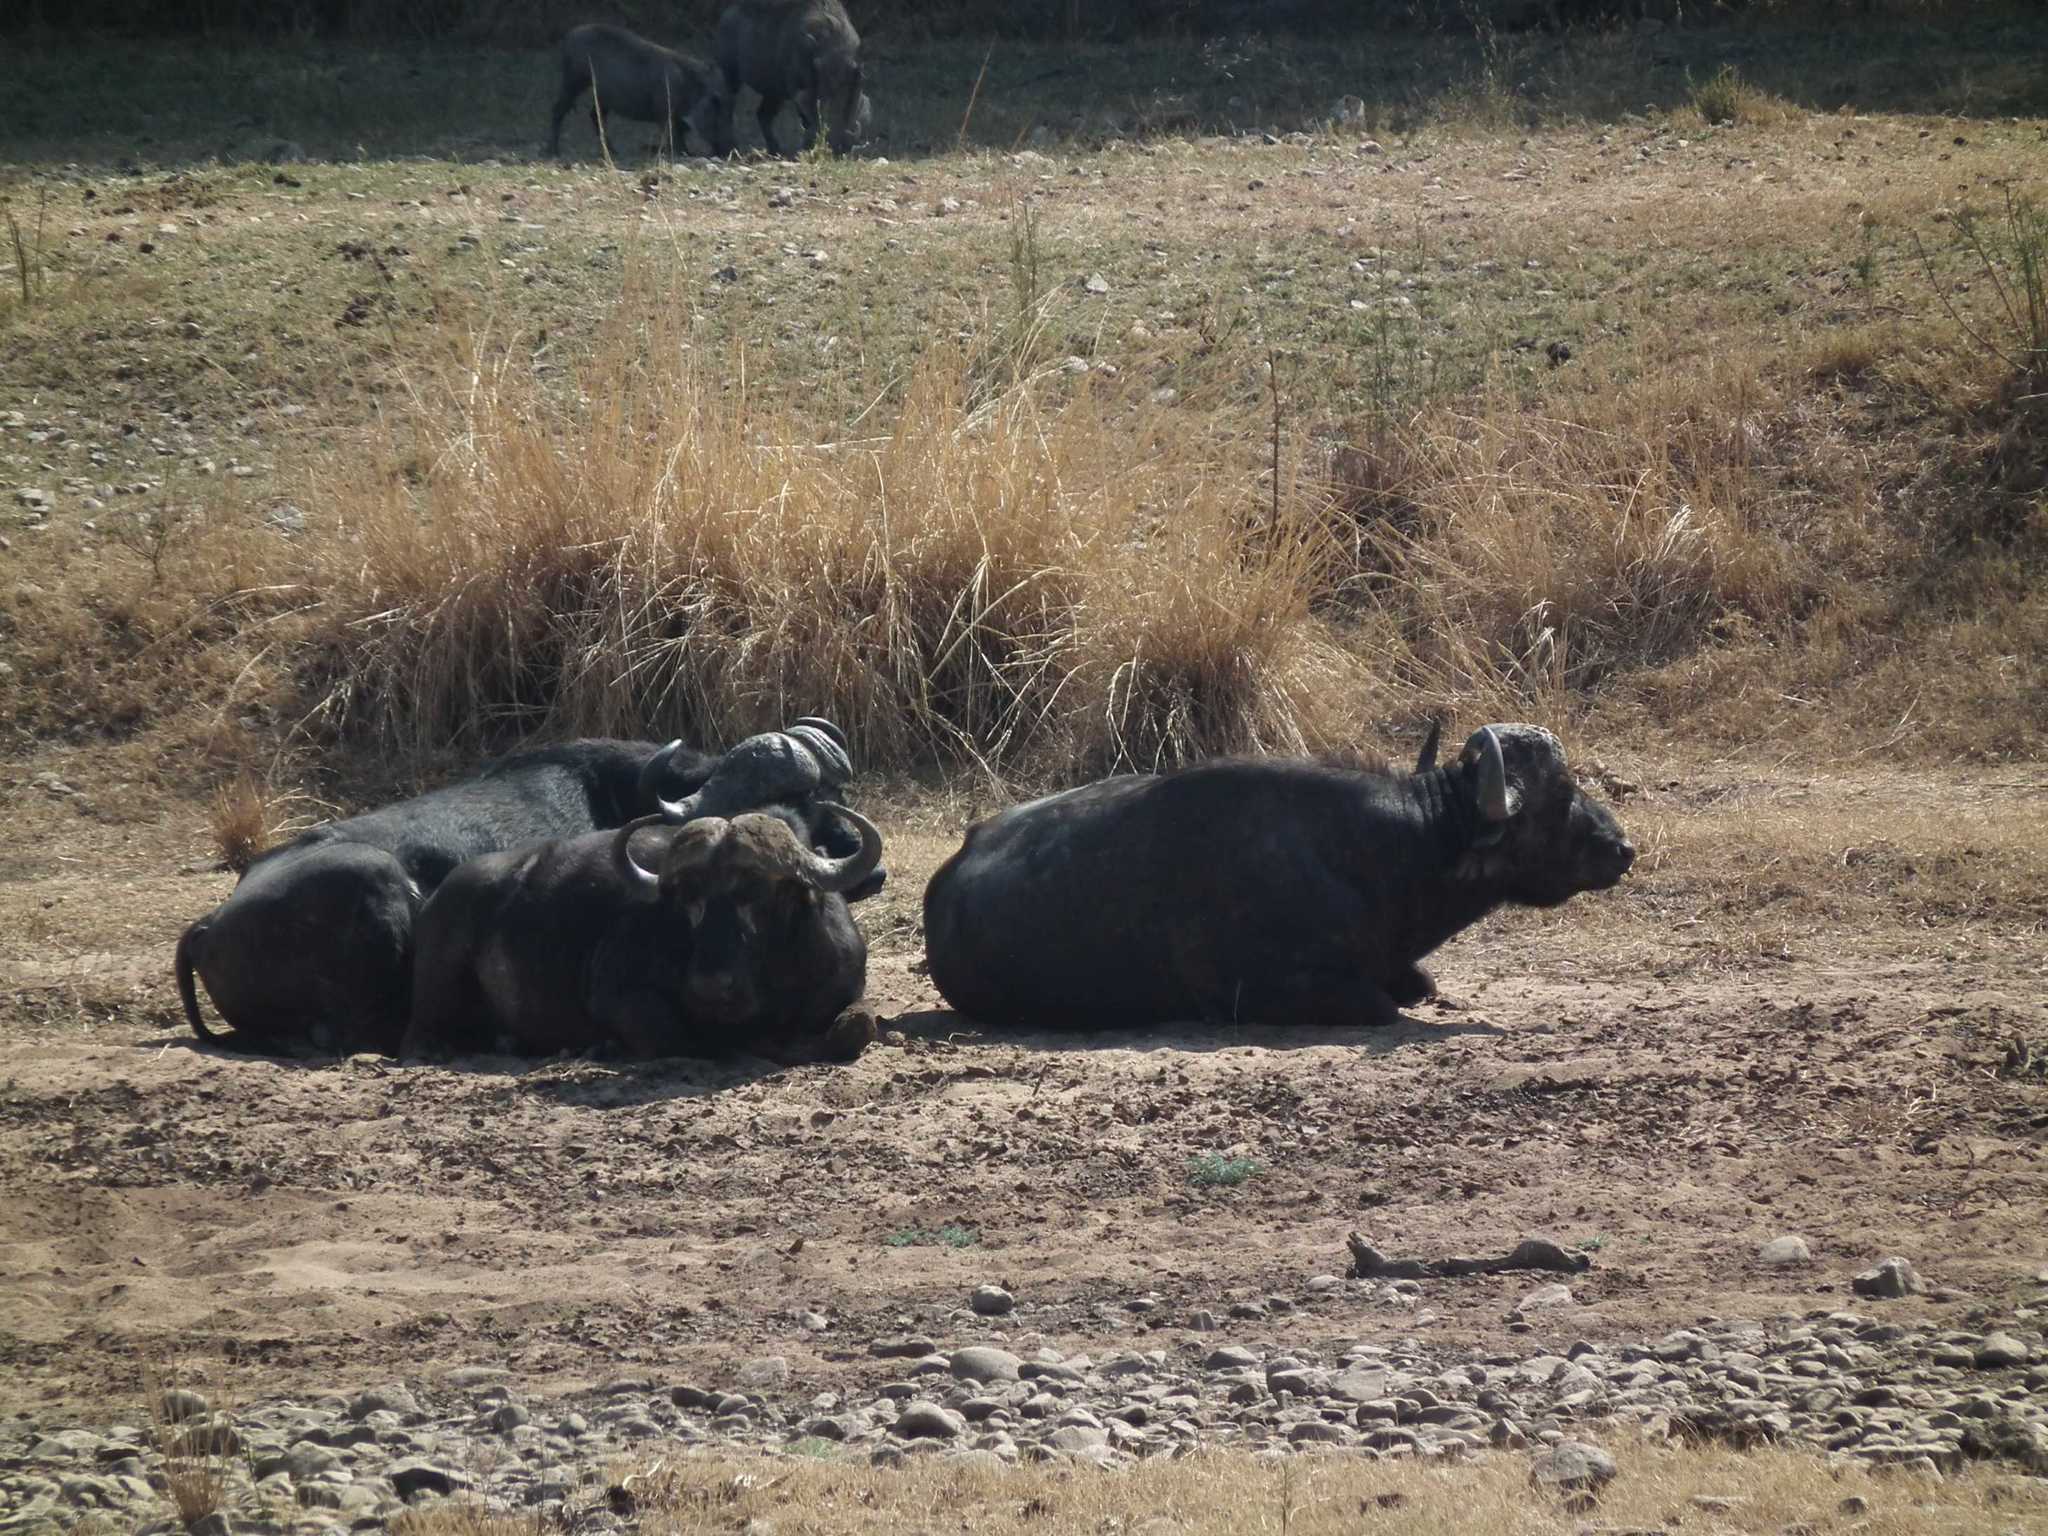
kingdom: Animalia
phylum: Chordata
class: Mammalia
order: Artiodactyla
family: Bovidae
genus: Syncerus
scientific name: Syncerus caffer
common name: African buffalo
